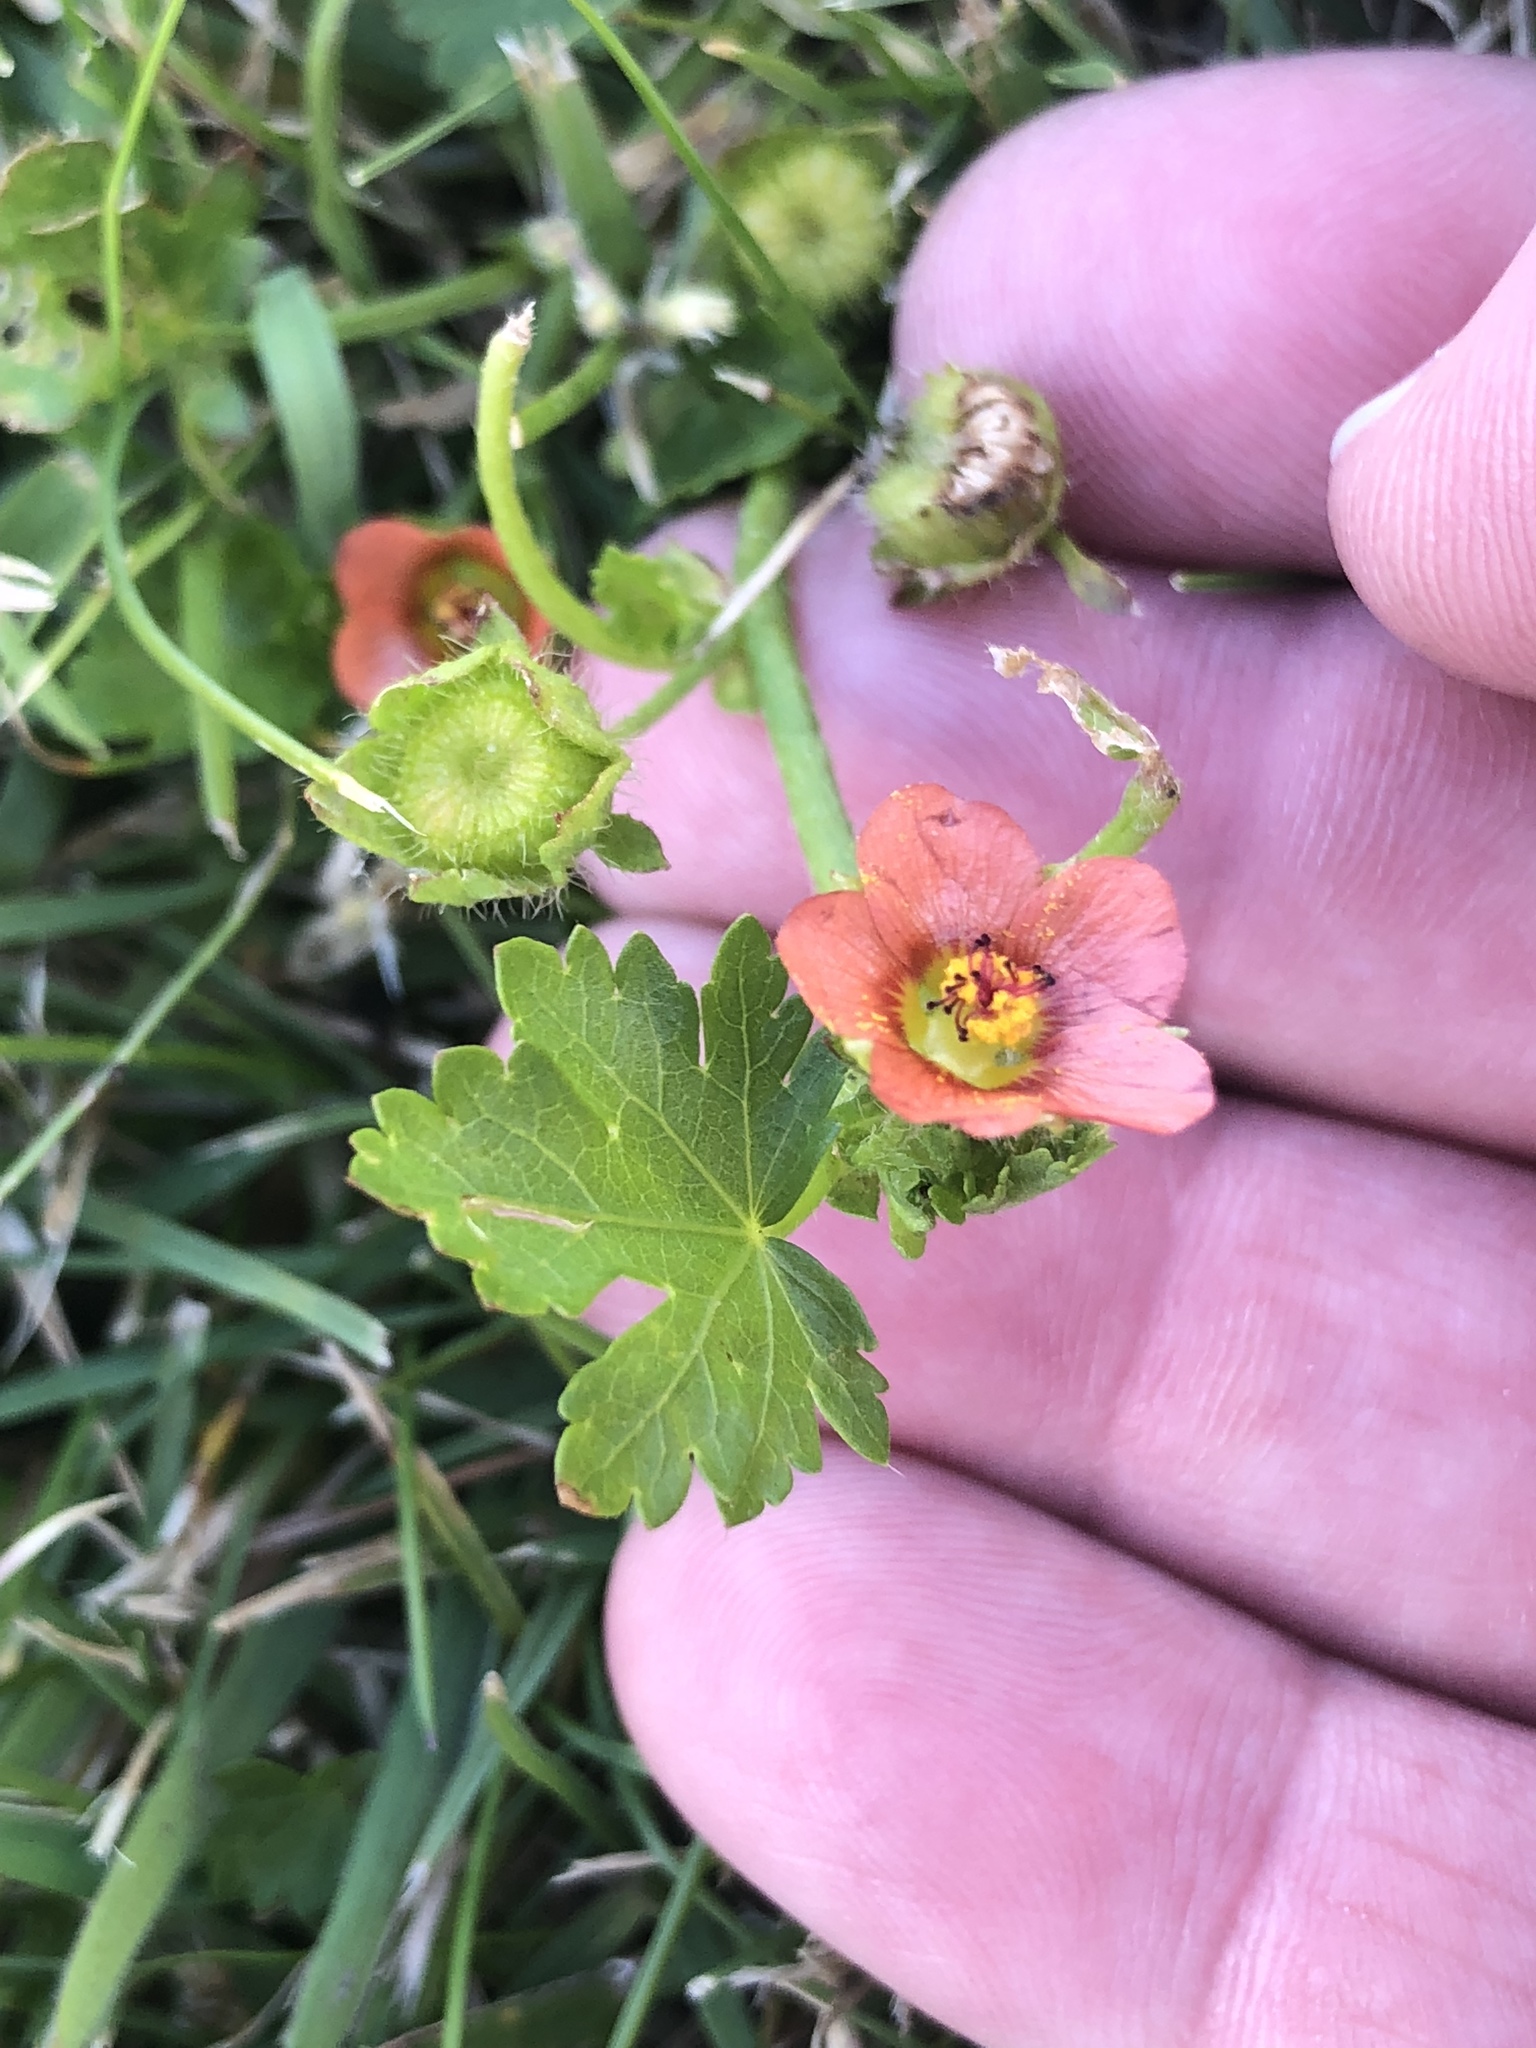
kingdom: Plantae
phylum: Tracheophyta
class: Magnoliopsida
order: Malvales
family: Malvaceae
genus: Modiola
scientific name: Modiola caroliniana
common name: Carolina bristlemallow
